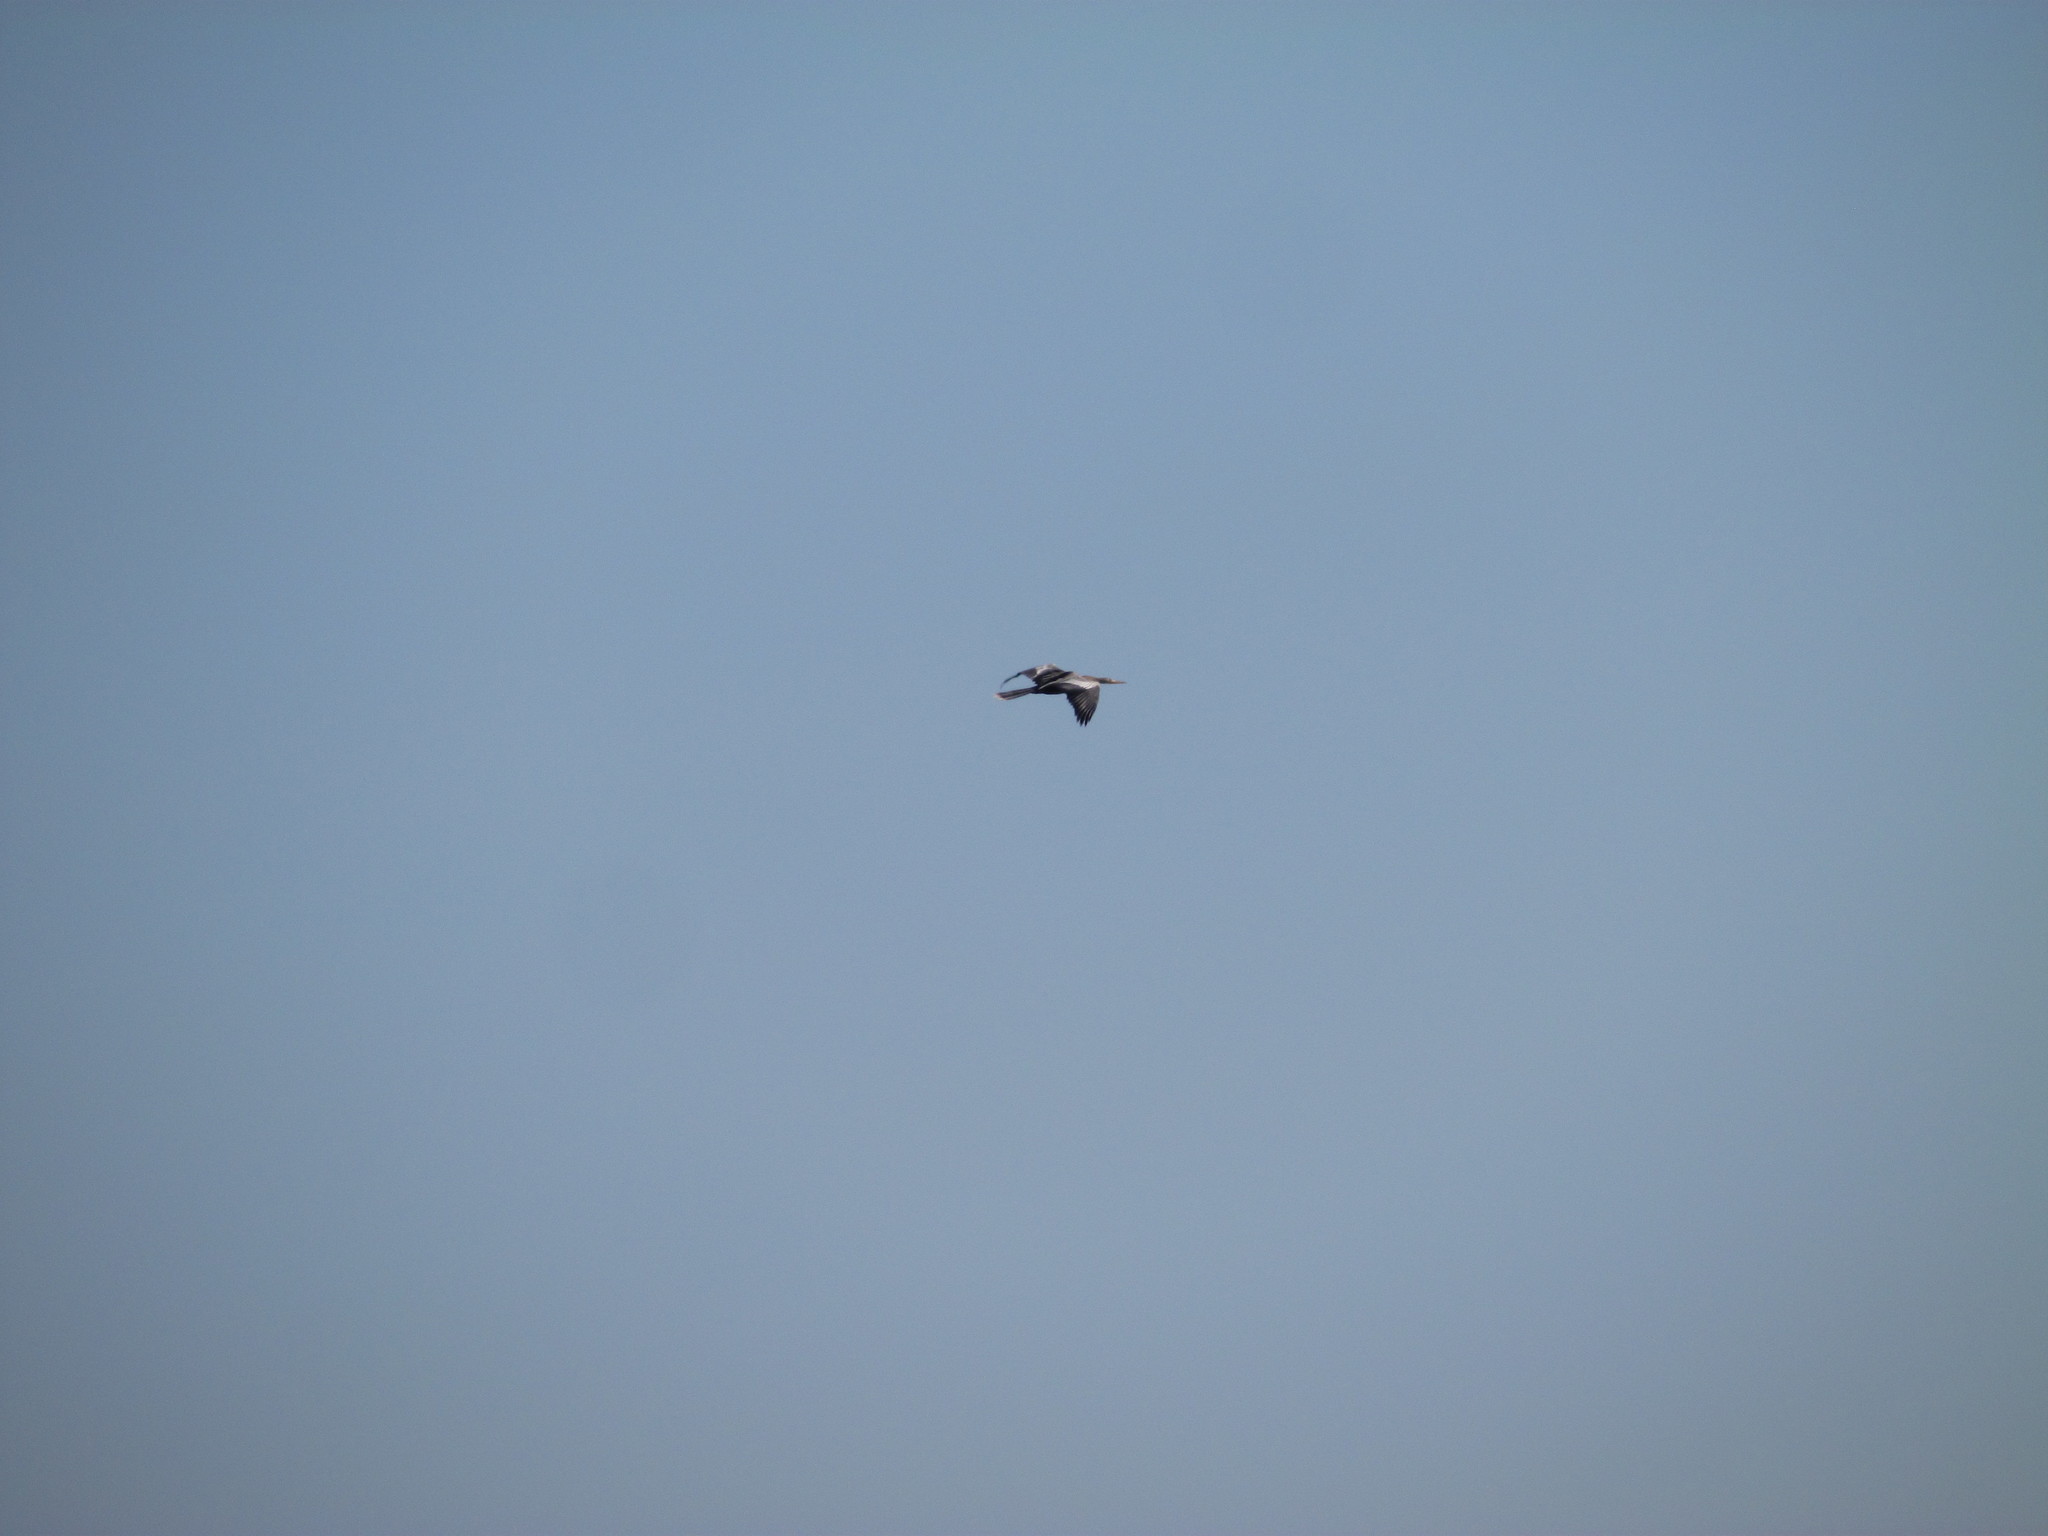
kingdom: Animalia
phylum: Chordata
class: Aves
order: Suliformes
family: Anhingidae
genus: Anhinga
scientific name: Anhinga anhinga
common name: Anhinga
